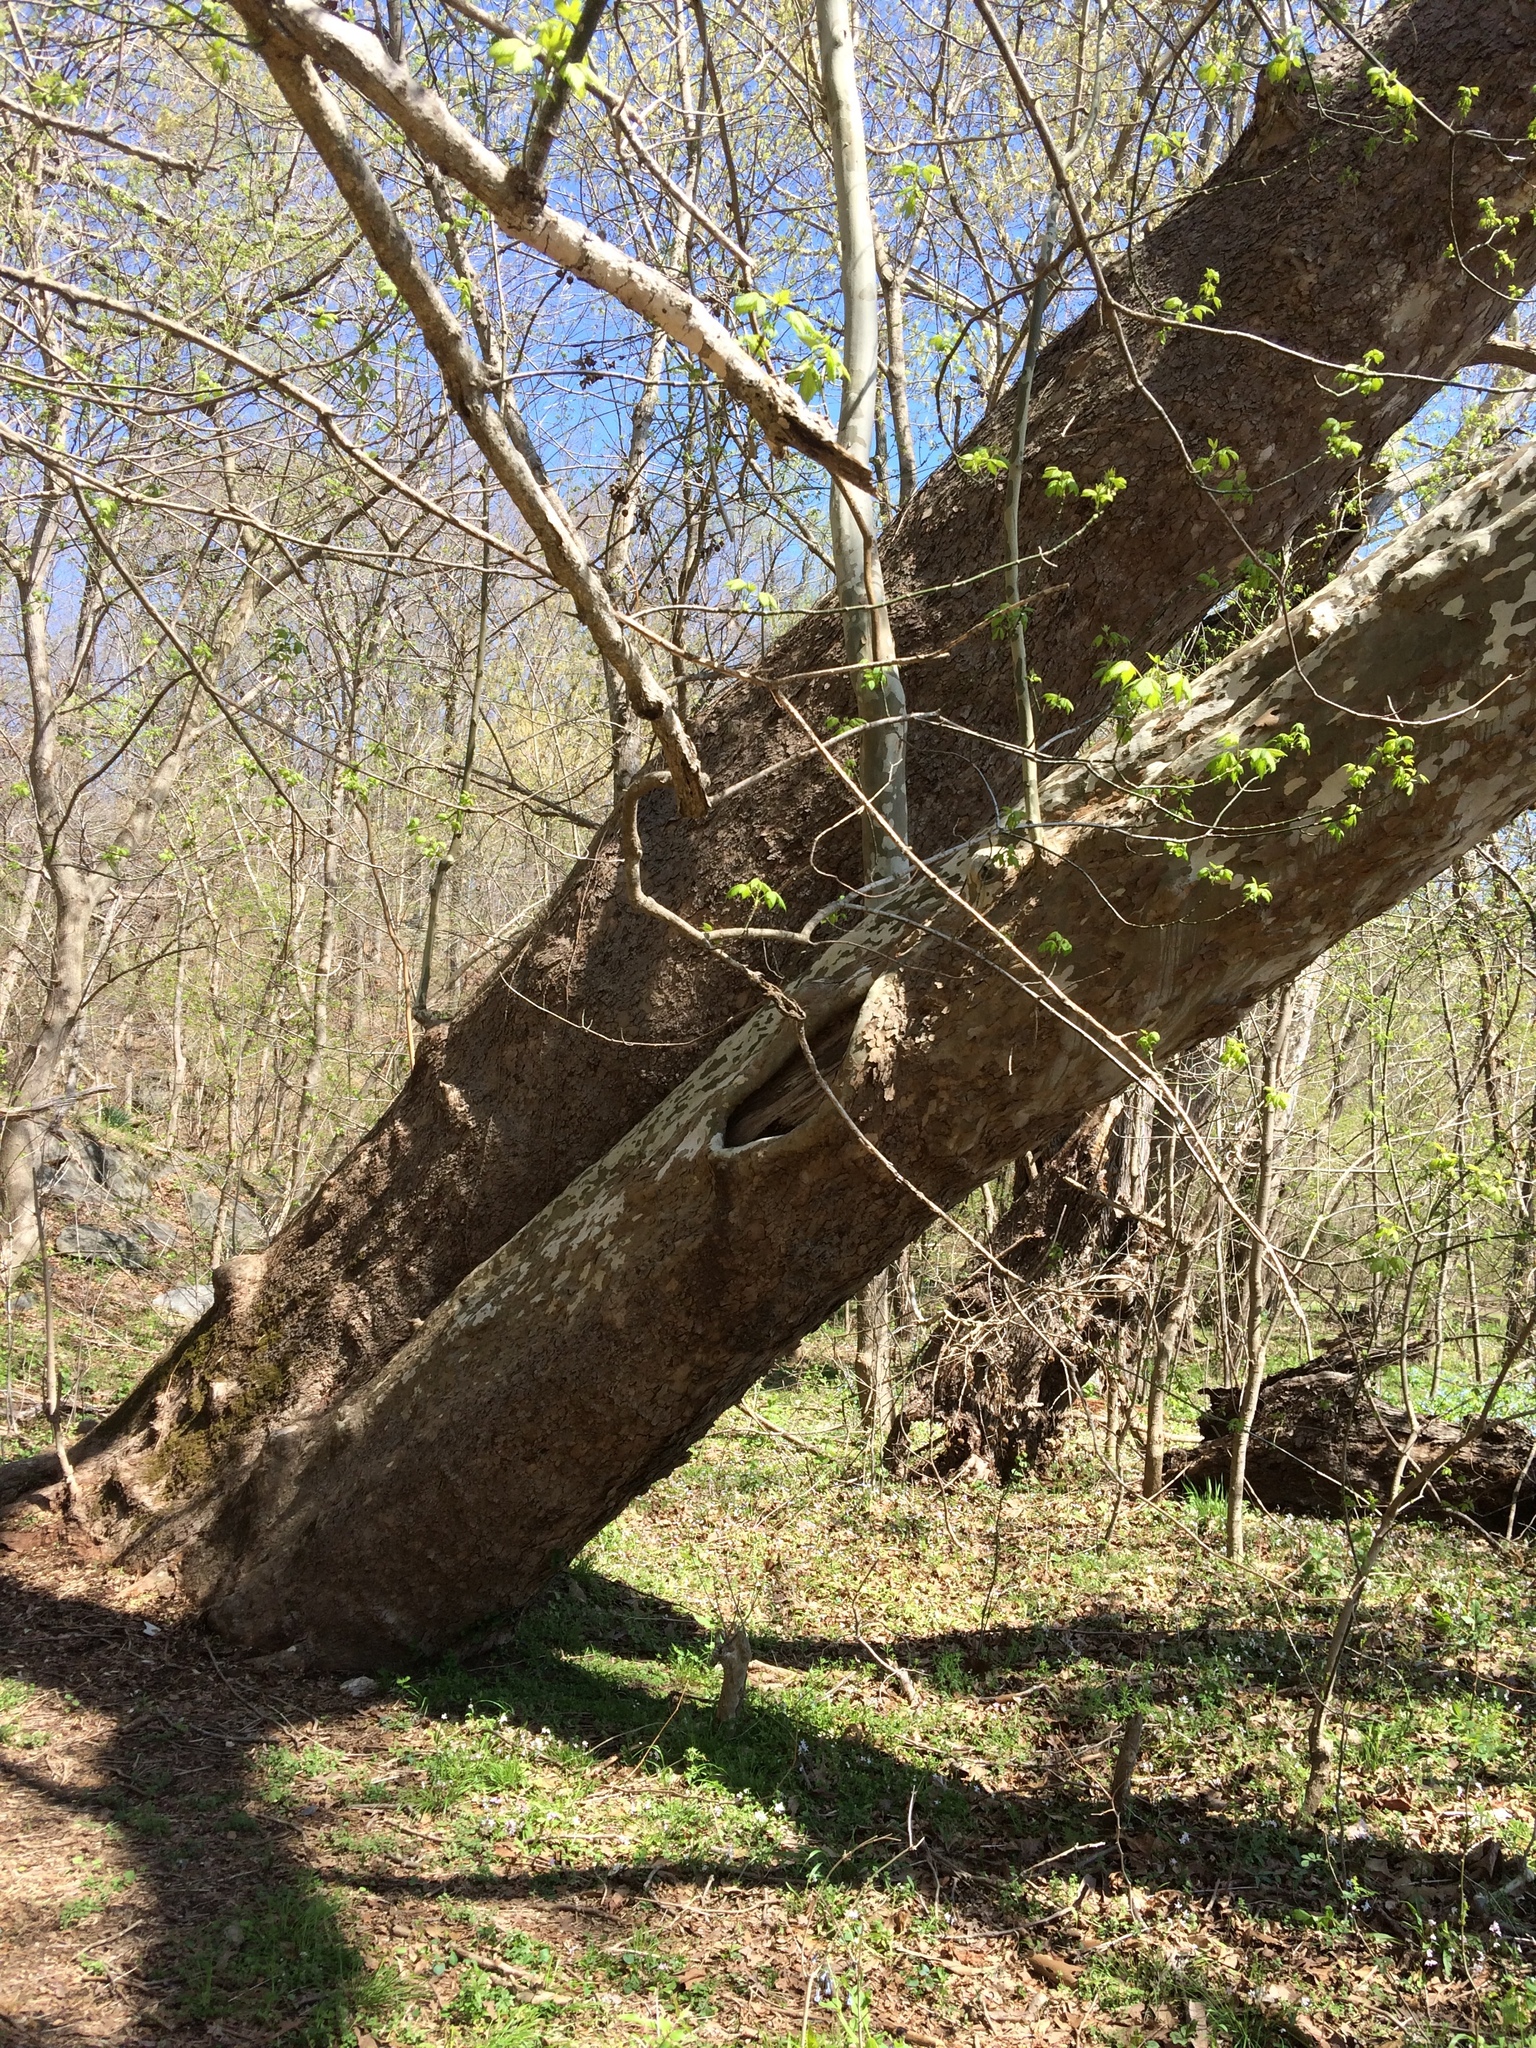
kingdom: Plantae
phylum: Tracheophyta
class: Magnoliopsida
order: Proteales
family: Platanaceae
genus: Platanus
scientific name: Platanus occidentalis
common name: American sycamore
